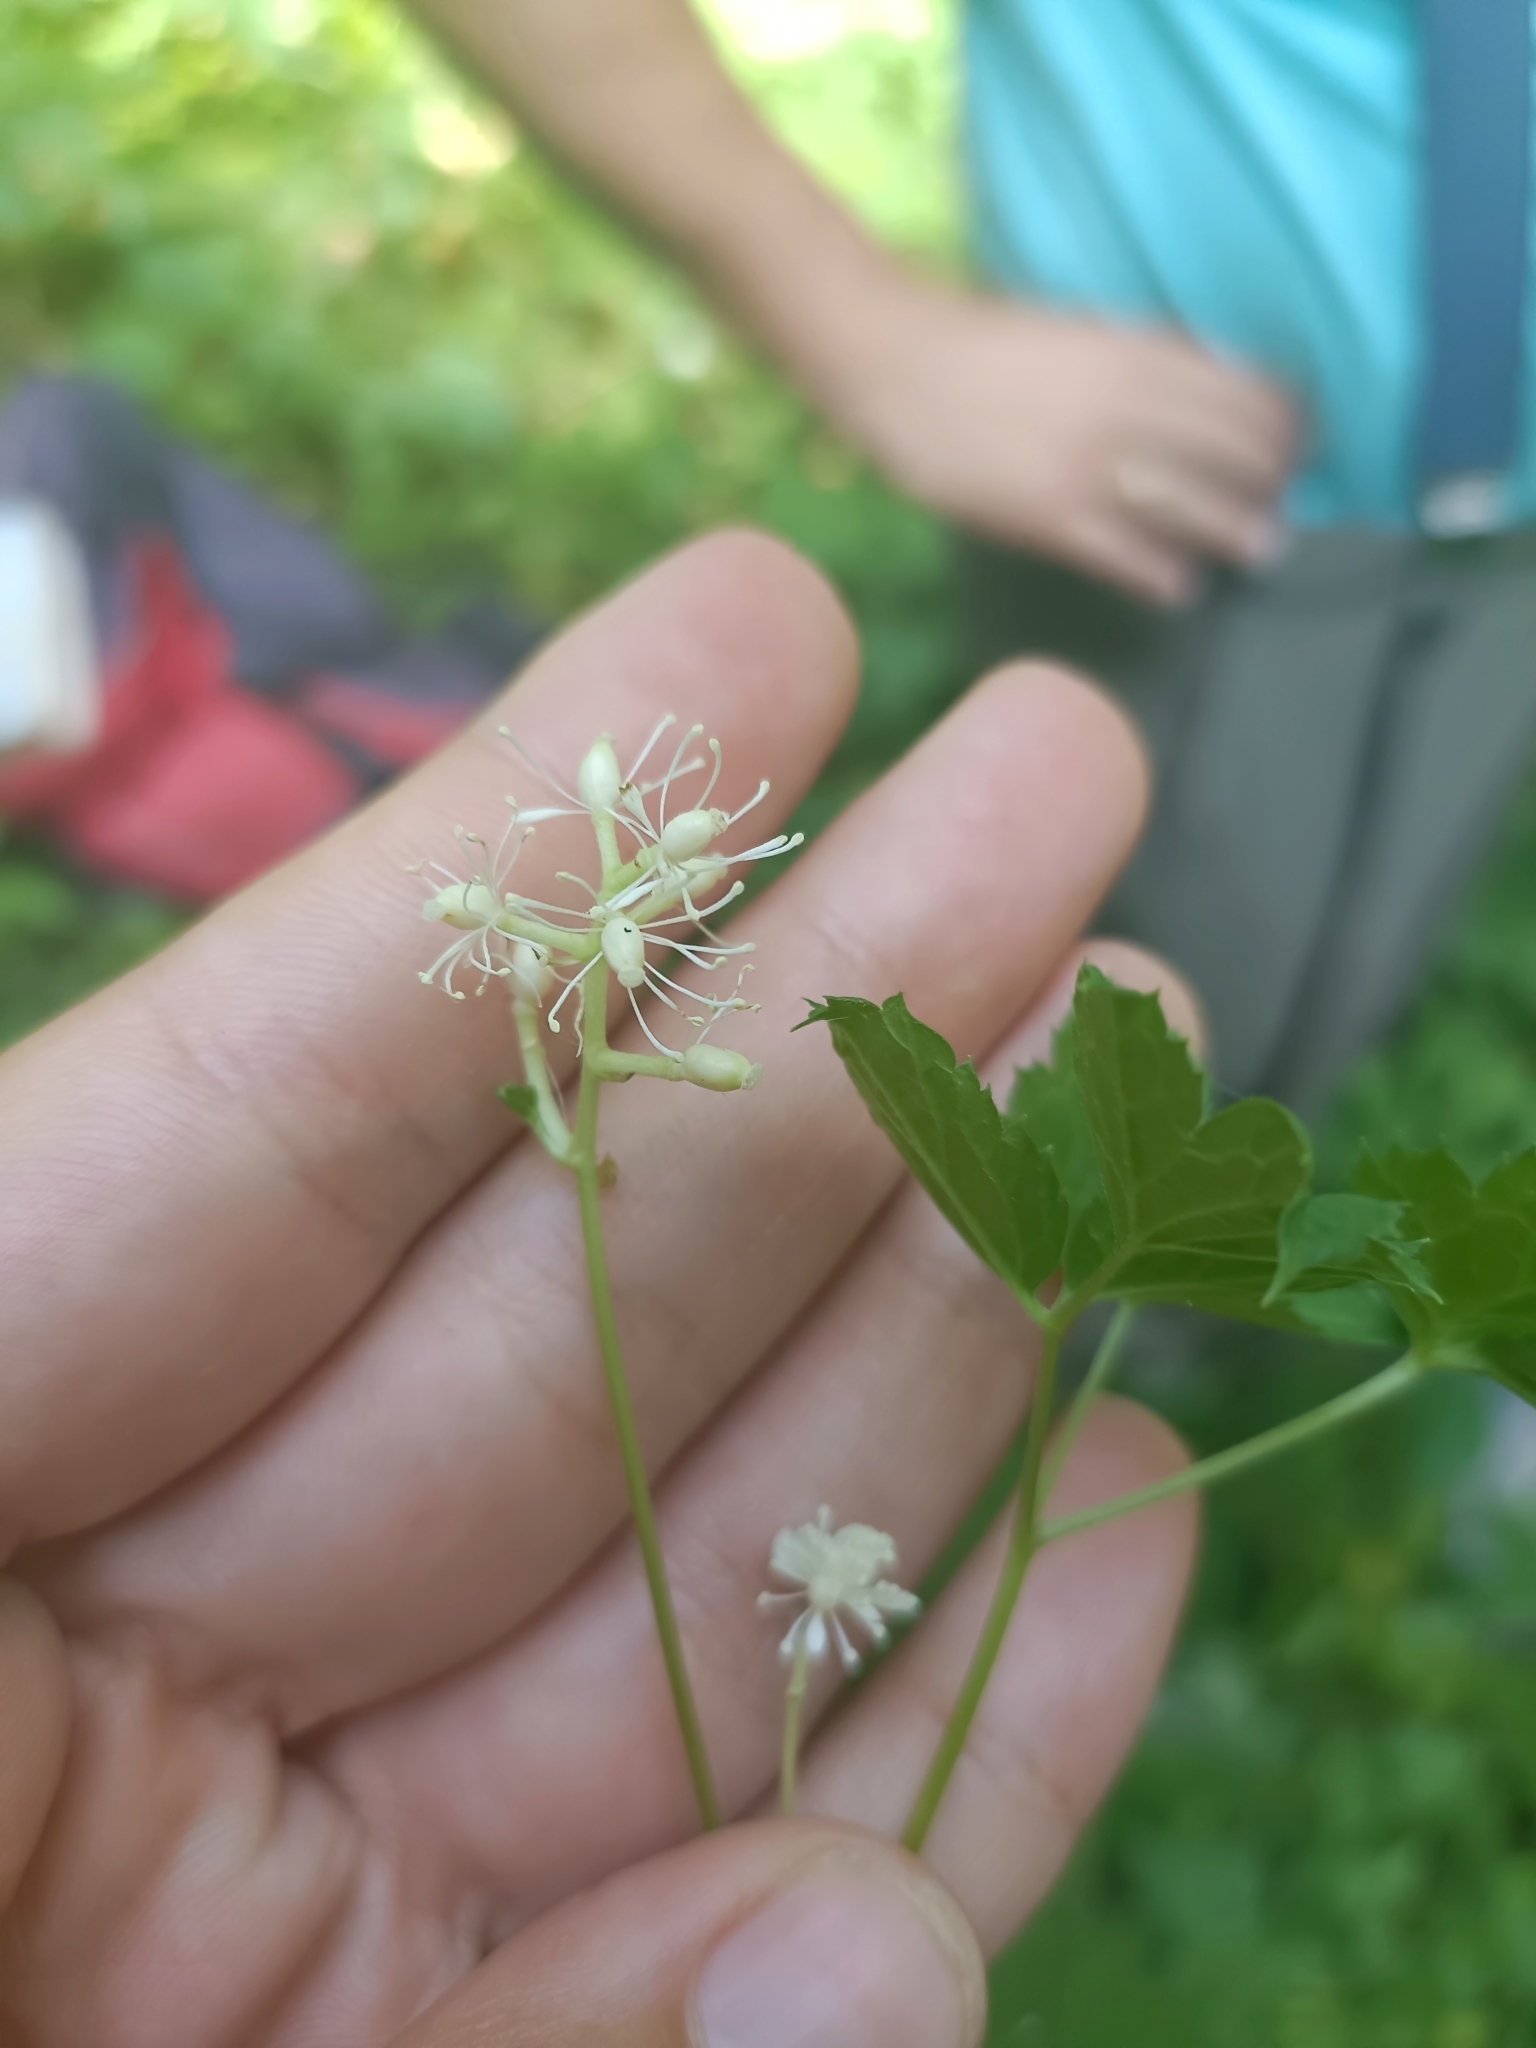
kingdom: Plantae
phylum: Tracheophyta
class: Magnoliopsida
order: Ranunculales
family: Ranunculaceae
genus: Actaea
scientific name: Actaea spicata
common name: Baneberry
